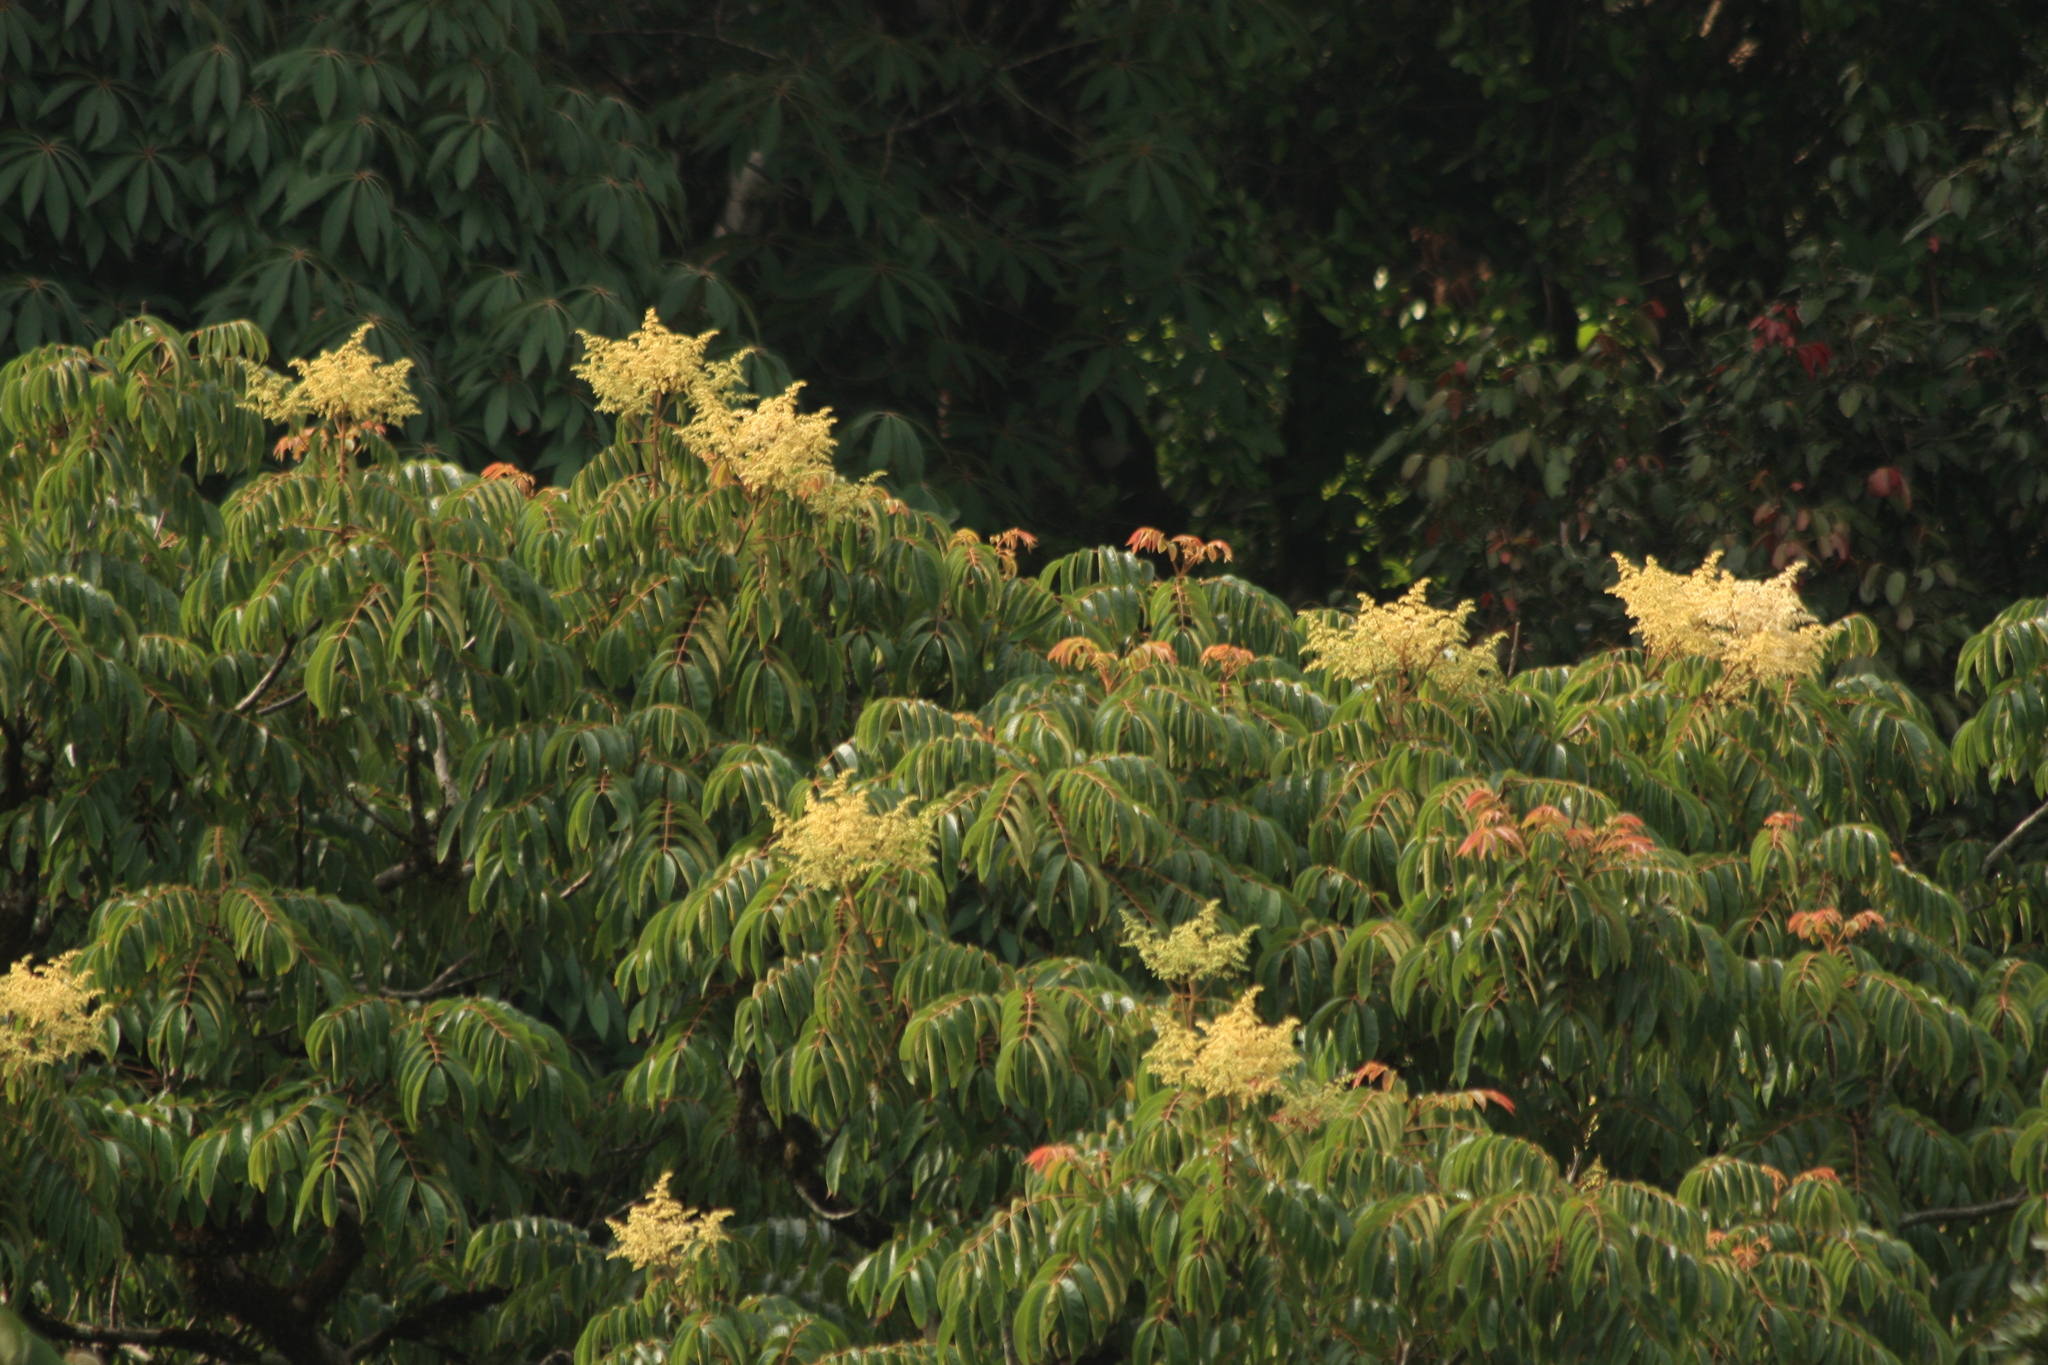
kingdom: Plantae
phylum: Tracheophyta
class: Magnoliopsida
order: Proteales
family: Sabiaceae
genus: Meliosma
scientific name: Meliosma pinnata
